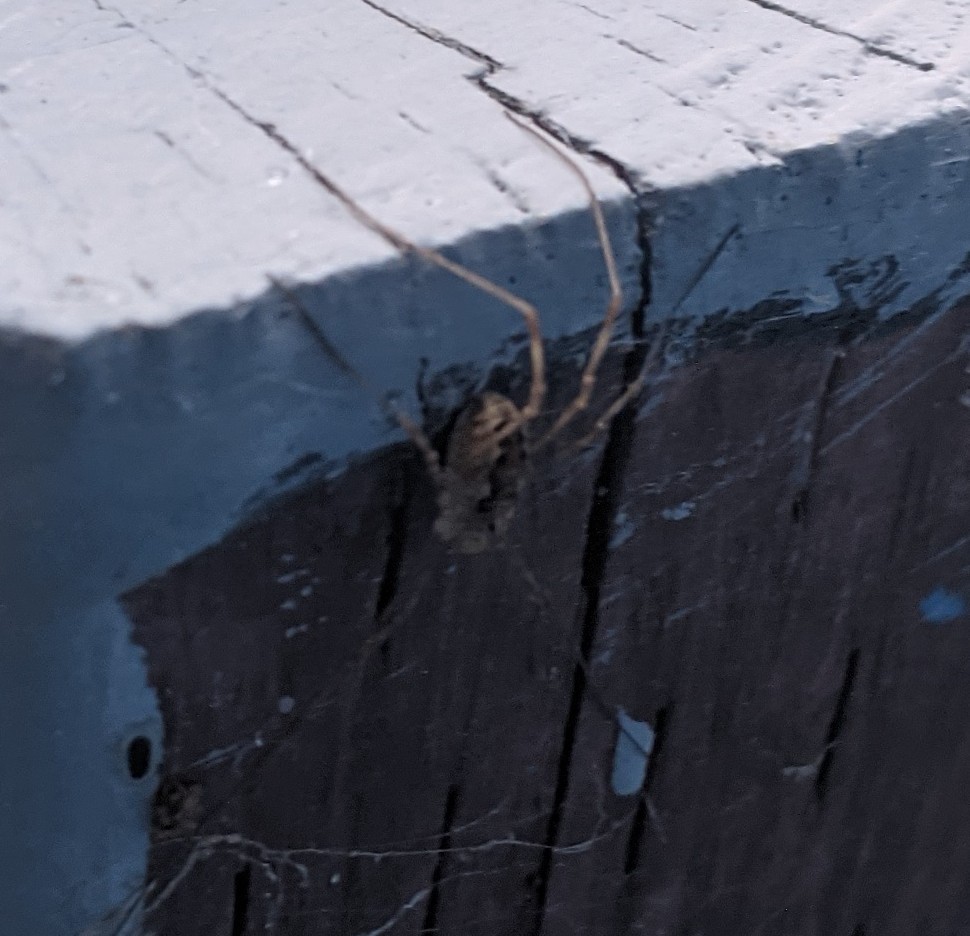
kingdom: Animalia
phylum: Arthropoda
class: Arachnida
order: Opiliones
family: Phalangiidae
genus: Rilaena
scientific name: Rilaena triangularis
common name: Spring harvestman
